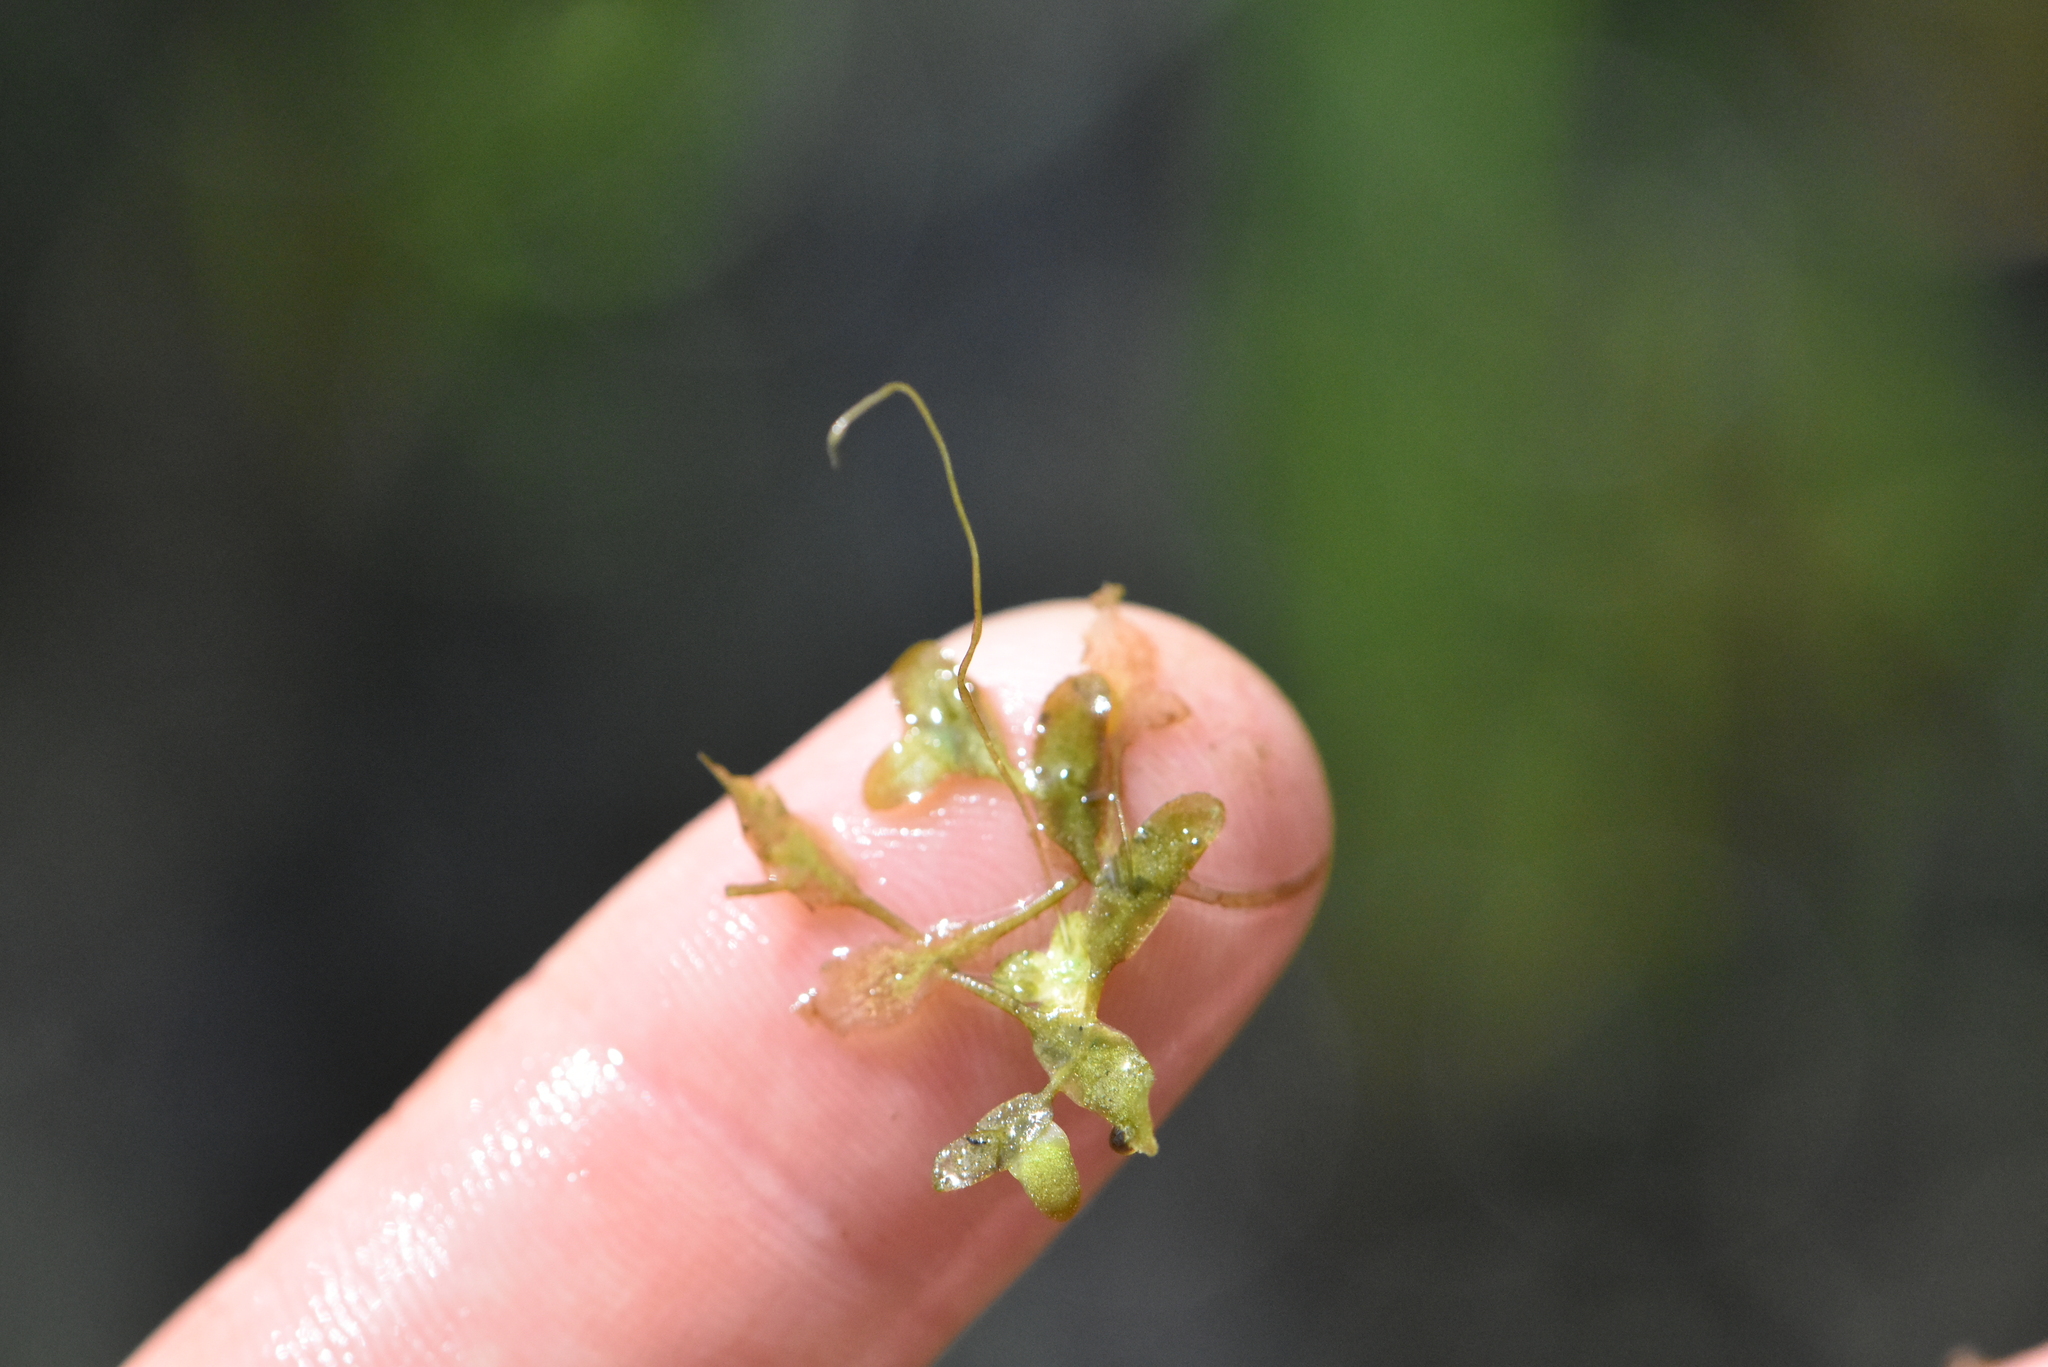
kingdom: Plantae
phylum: Tracheophyta
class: Liliopsida
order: Alismatales
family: Araceae
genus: Lemna
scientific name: Lemna trisulca
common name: Ivy-leaved duckweed
